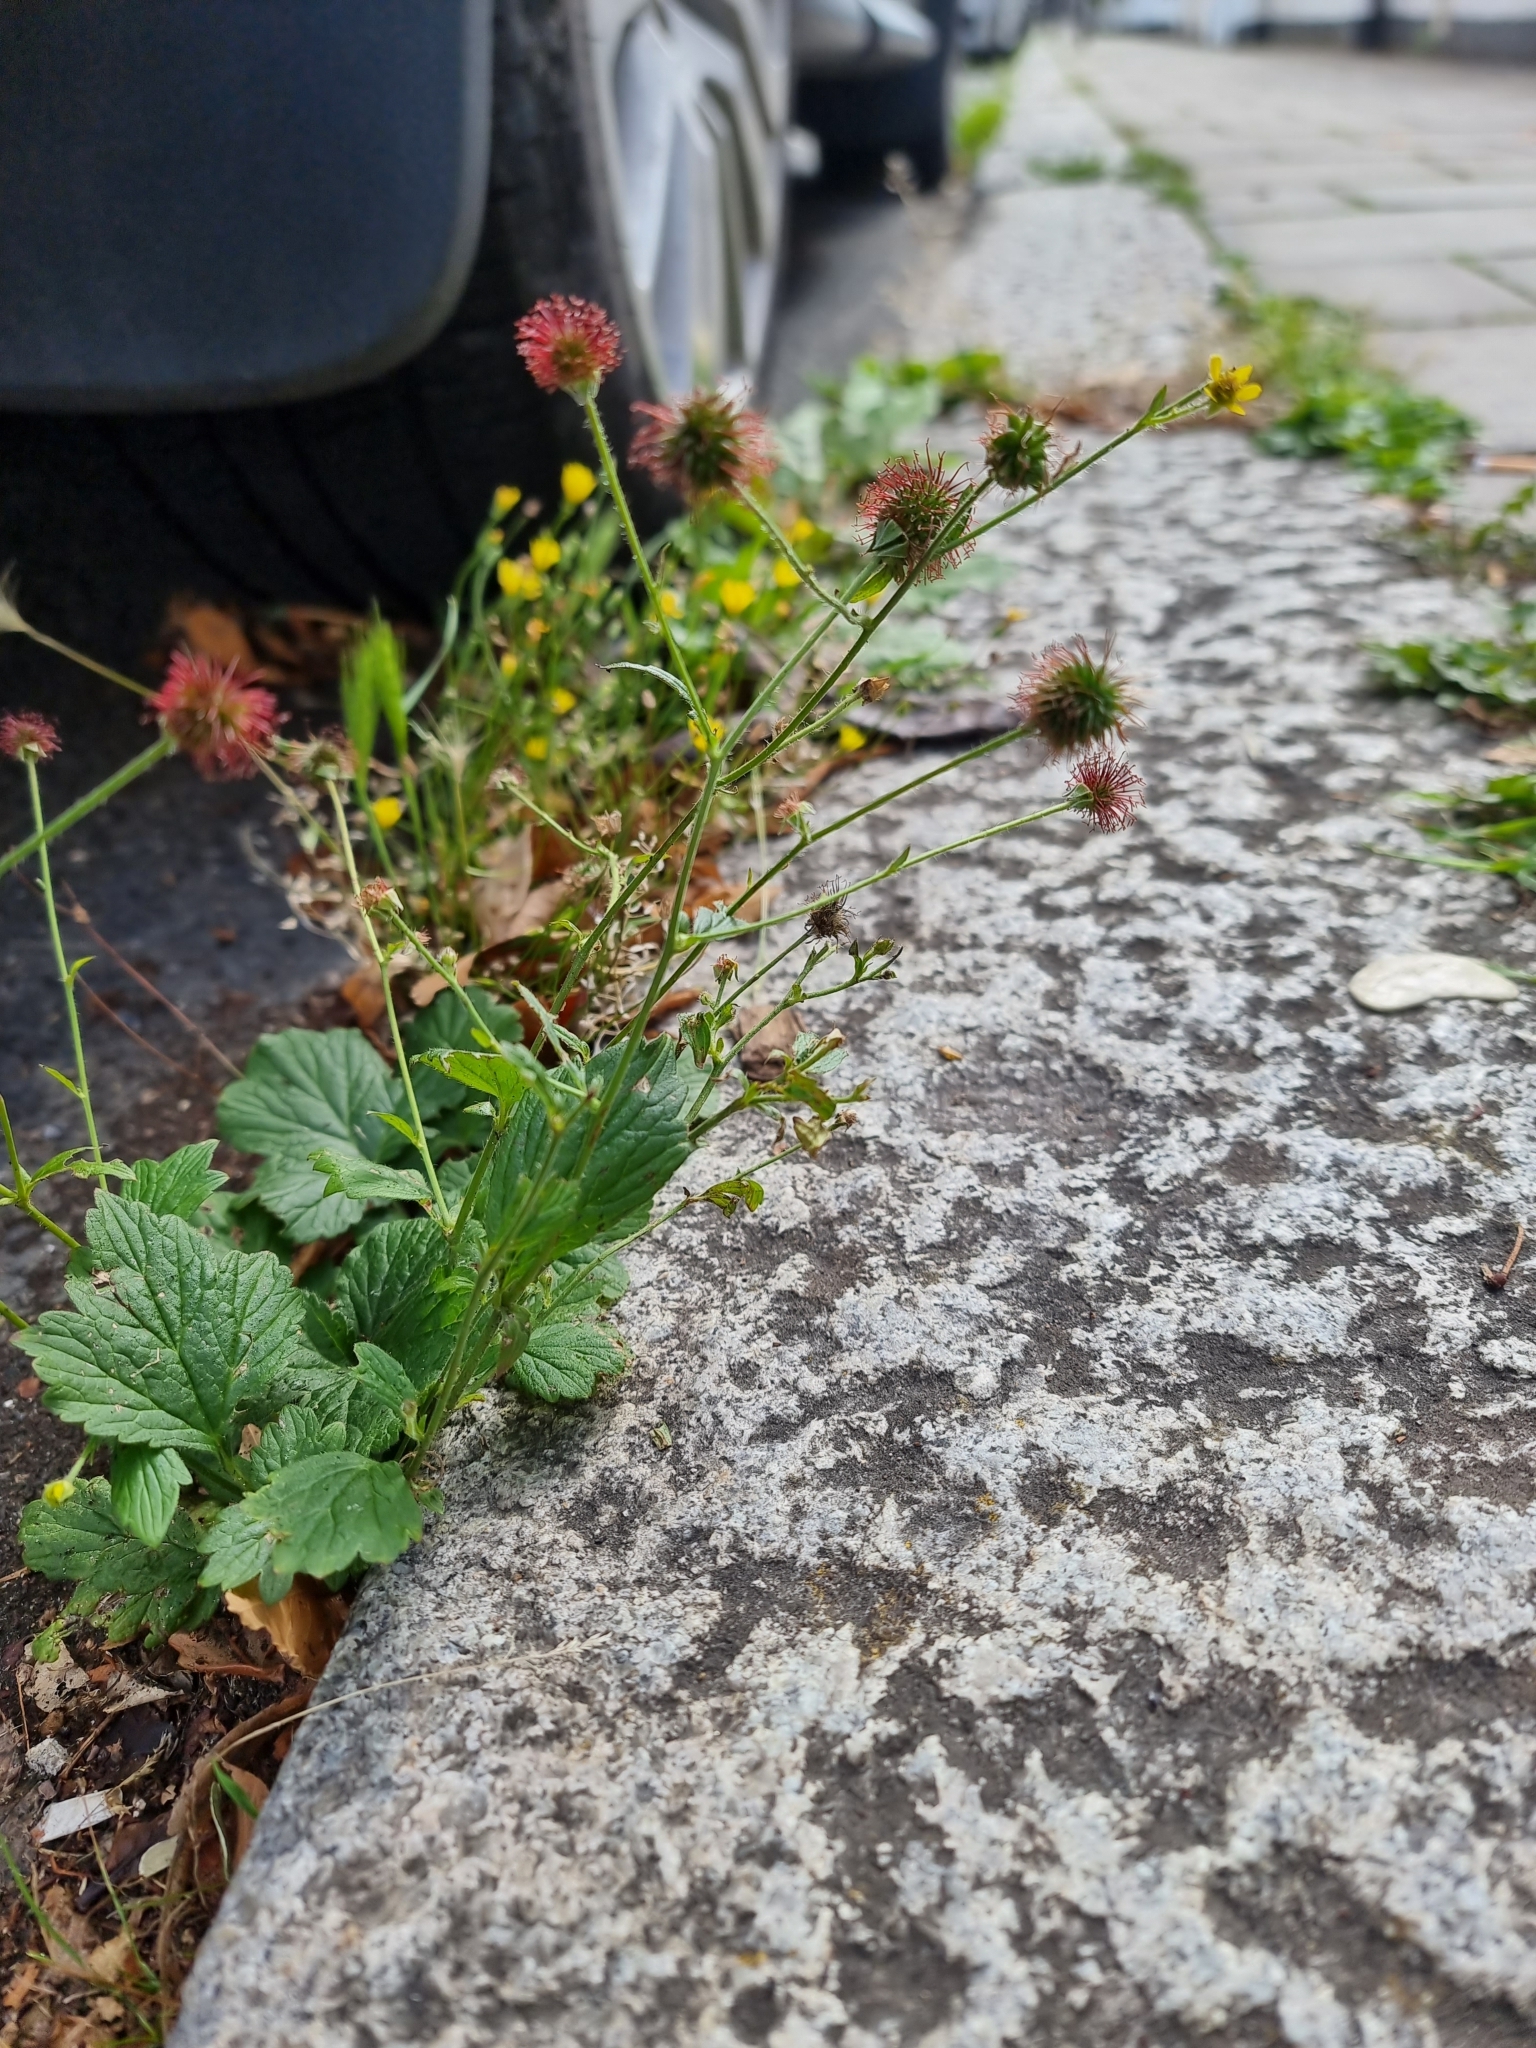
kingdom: Plantae
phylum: Tracheophyta
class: Magnoliopsida
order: Rosales
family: Rosaceae
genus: Geum
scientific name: Geum urbanum
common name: Wood avens
